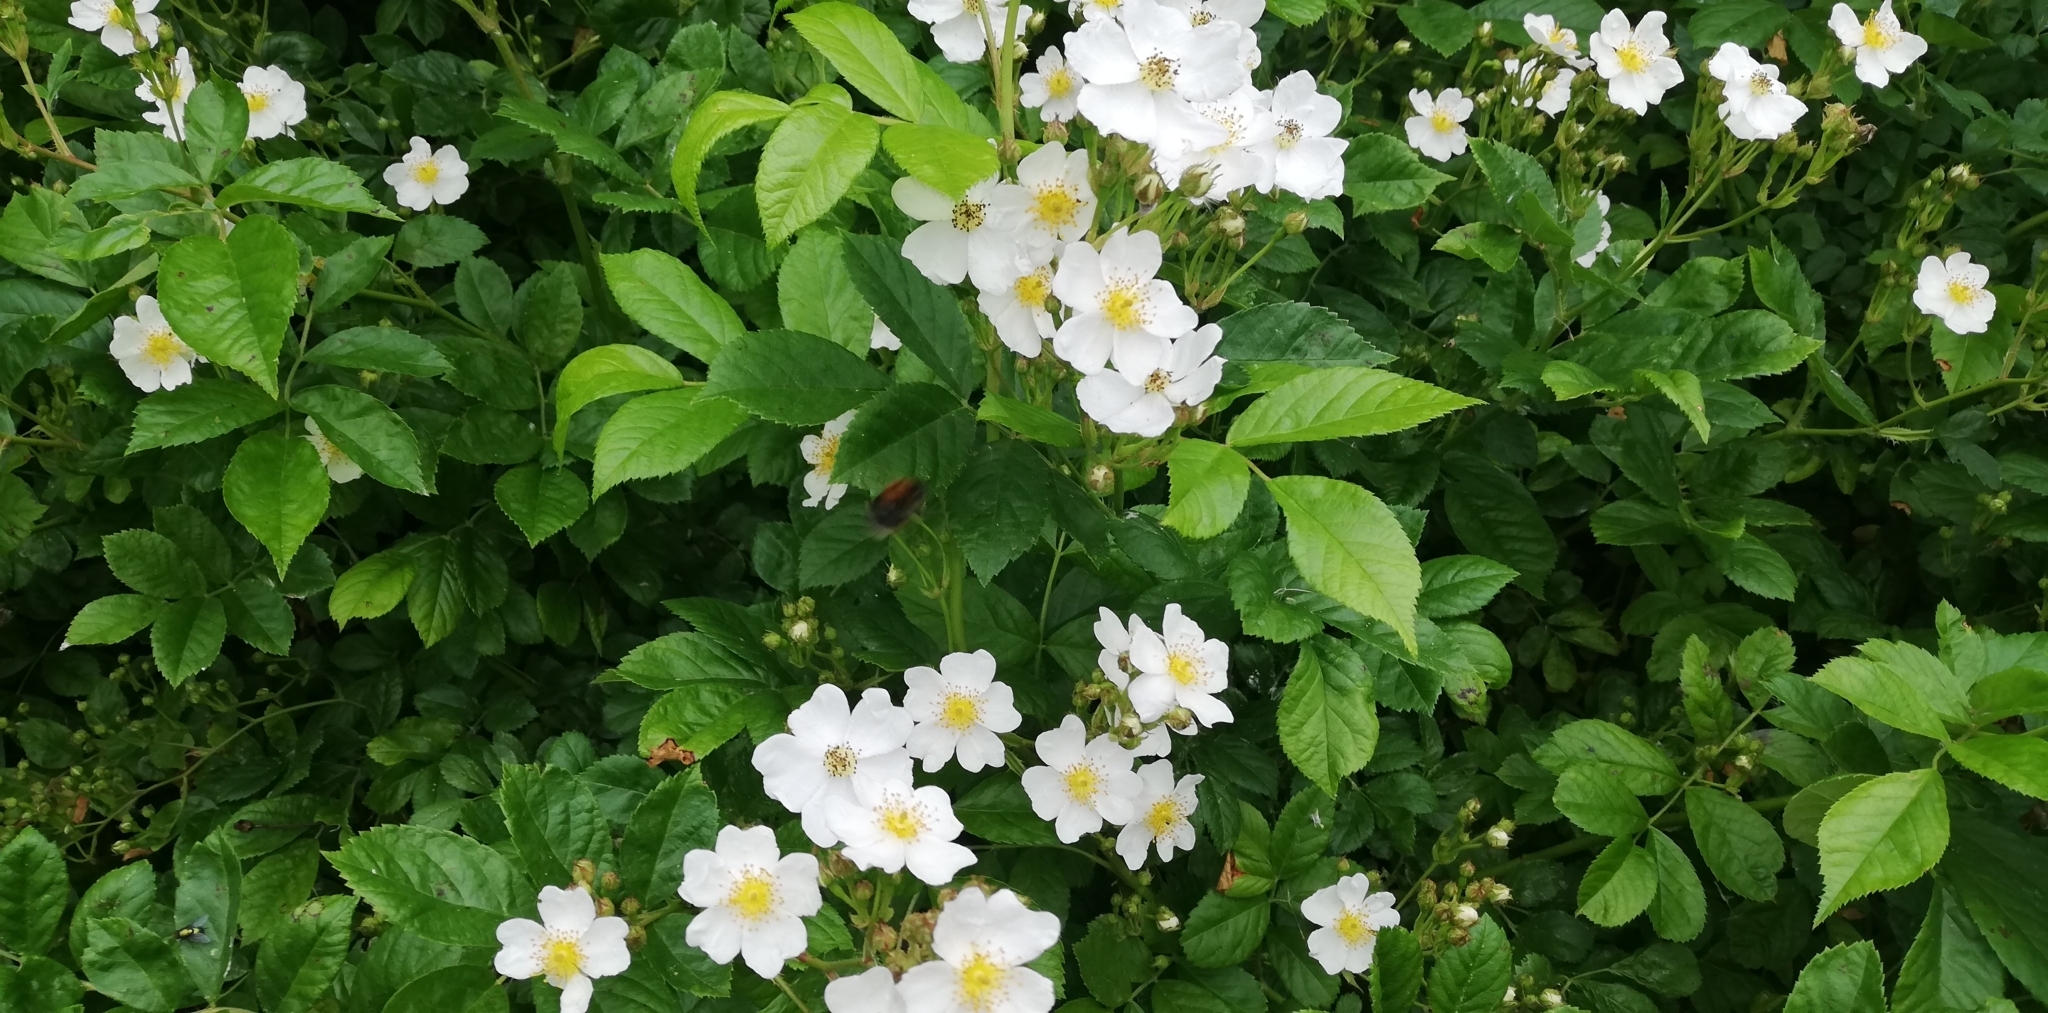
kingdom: Plantae
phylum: Tracheophyta
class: Magnoliopsida
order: Rosales
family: Rosaceae
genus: Rosa
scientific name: Rosa multiflora
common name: Multiflora rose
